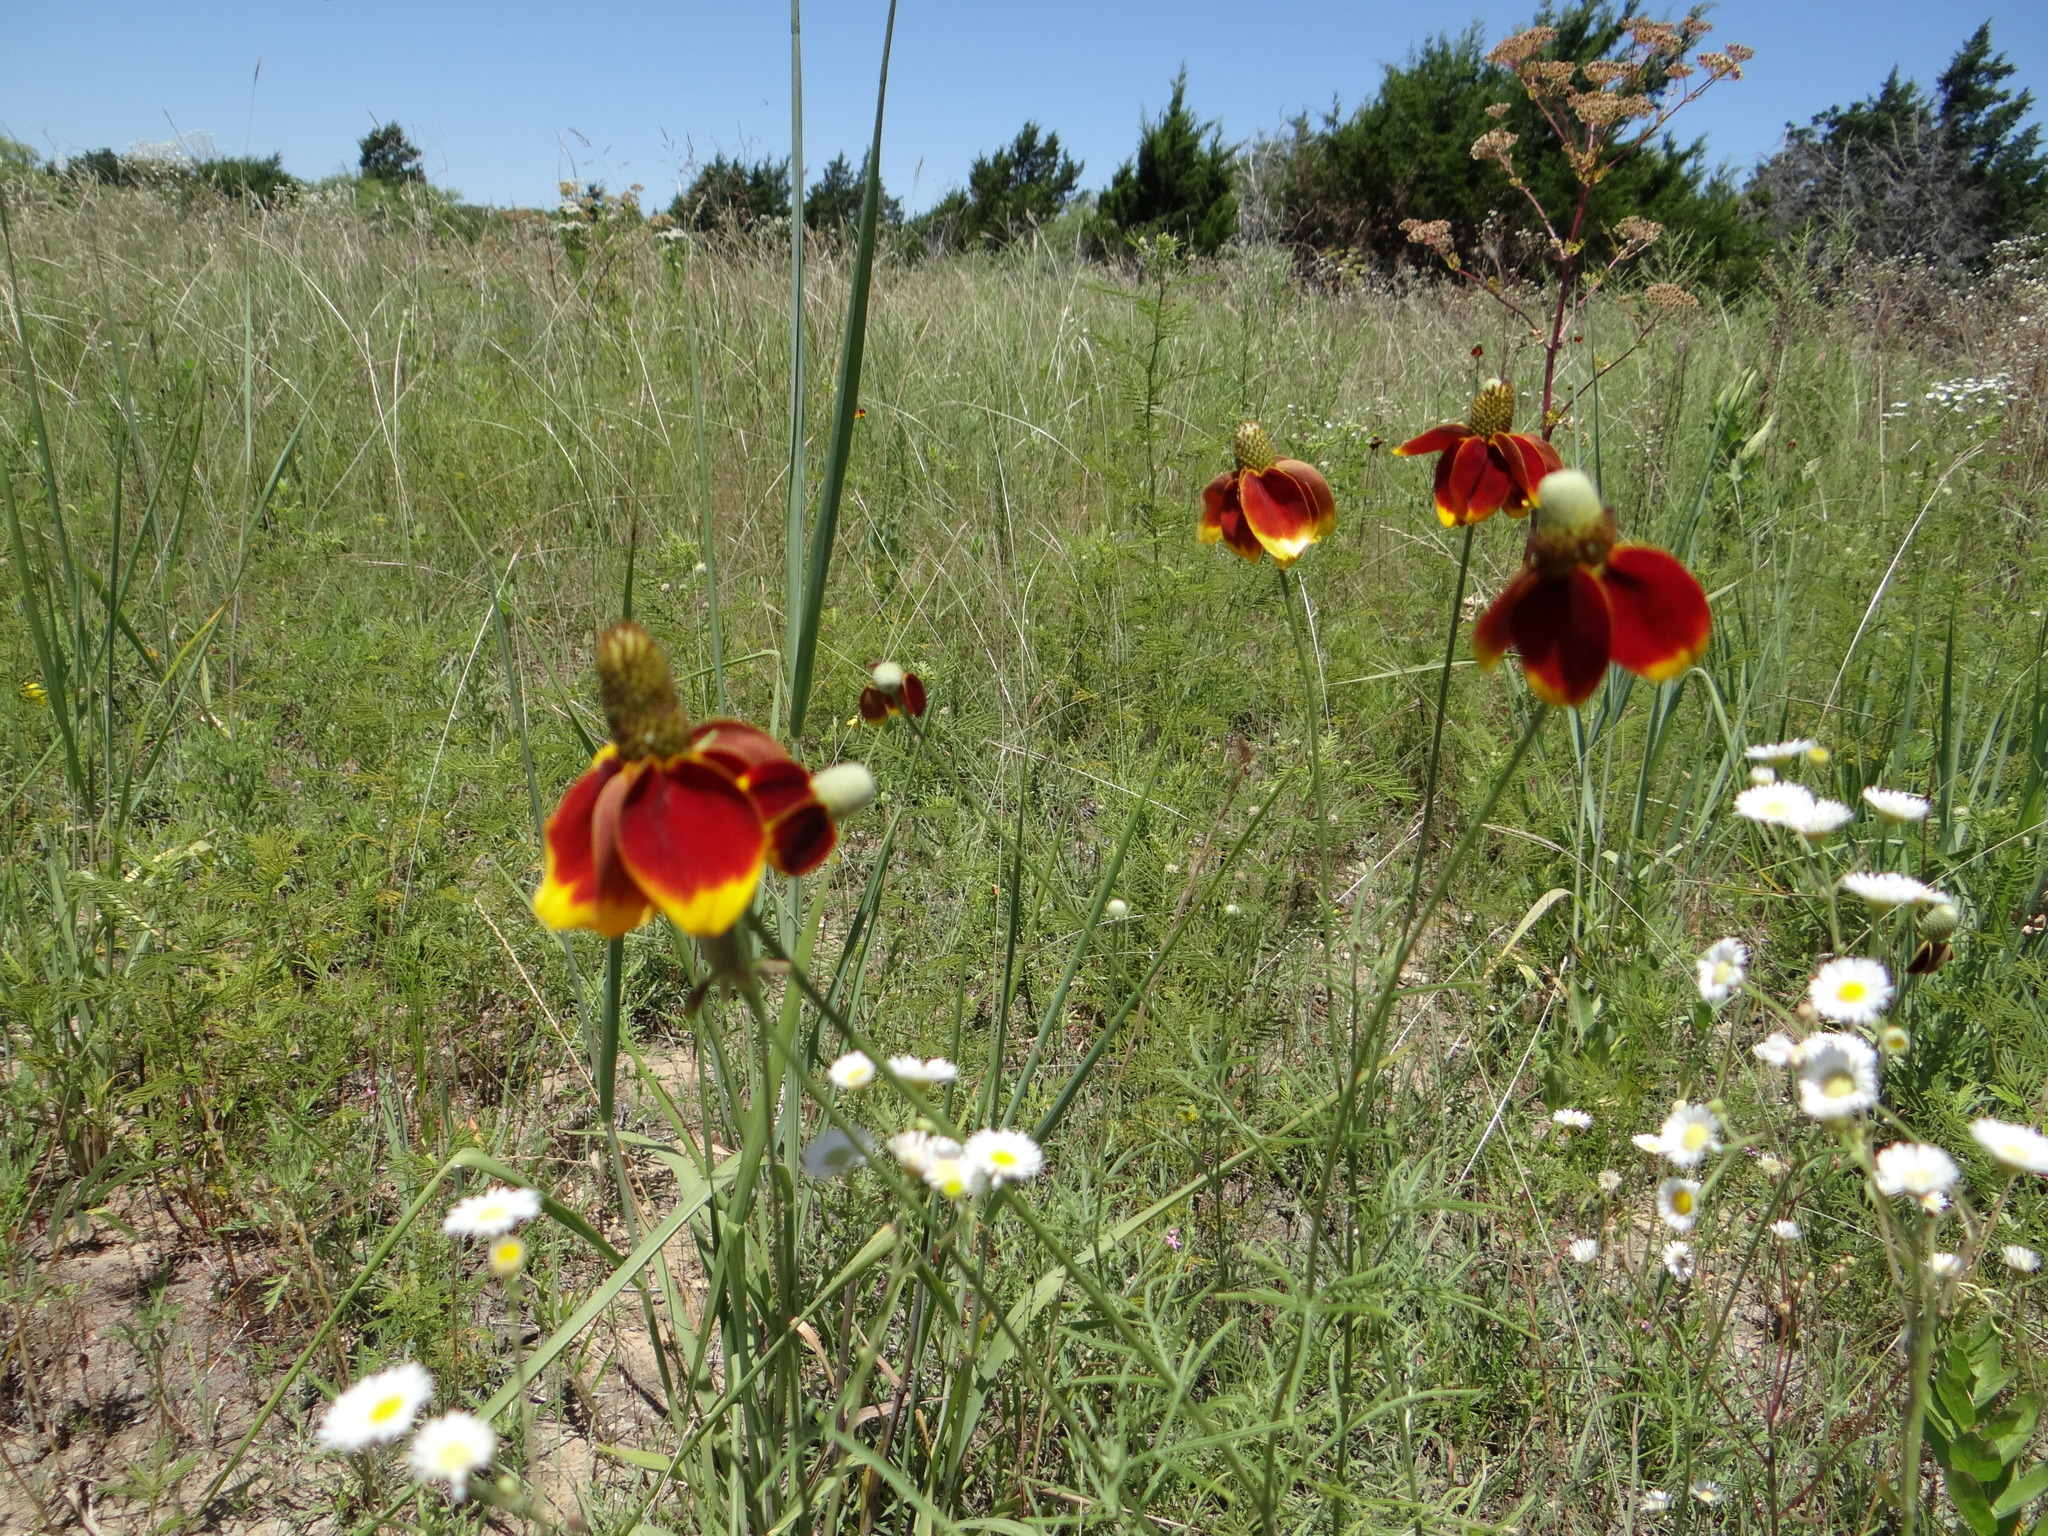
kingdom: Plantae
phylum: Tracheophyta
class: Magnoliopsida
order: Asterales
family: Asteraceae
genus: Ratibida
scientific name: Ratibida columnifera
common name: Prairie coneflower
